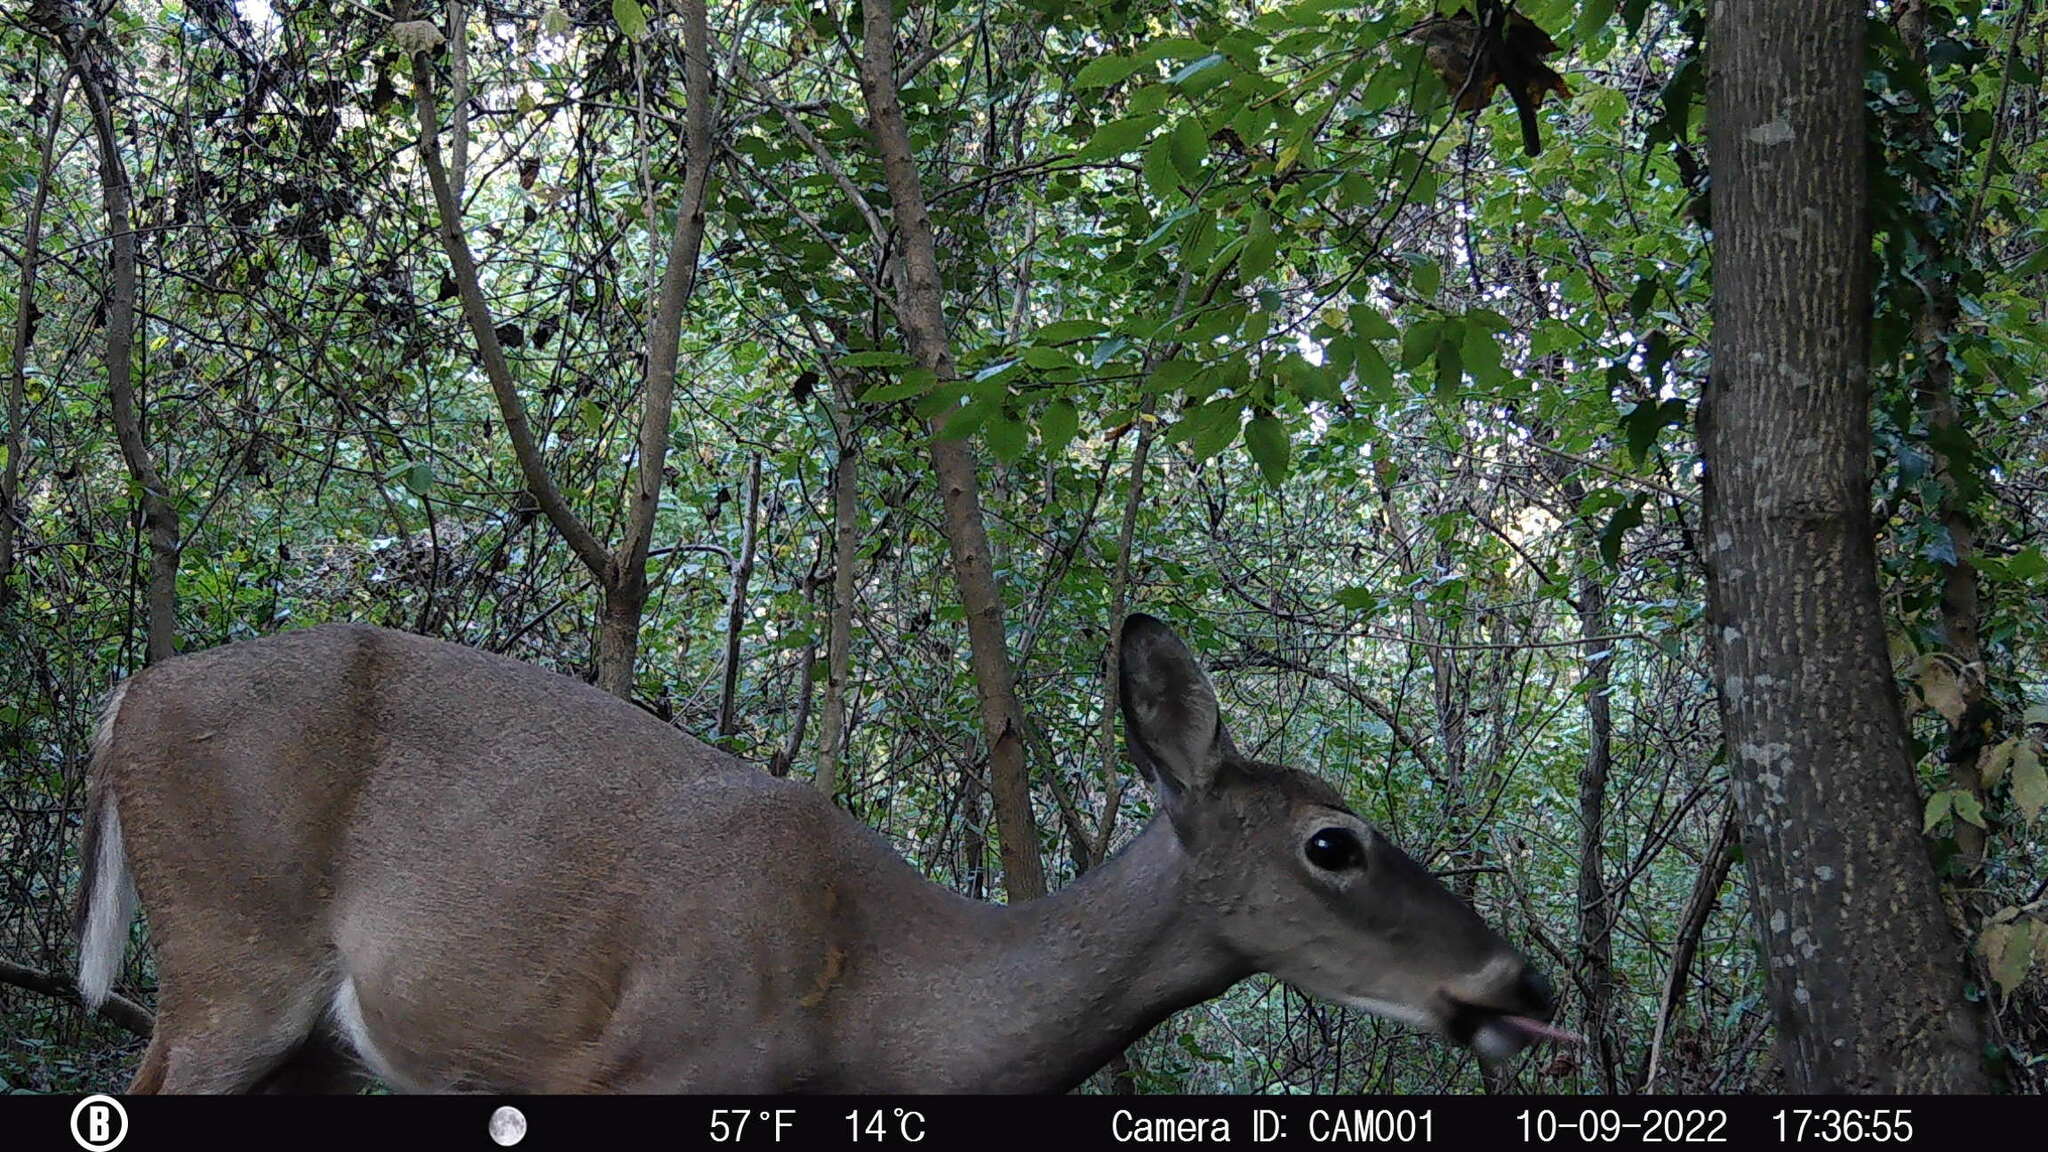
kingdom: Animalia
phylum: Chordata
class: Mammalia
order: Artiodactyla
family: Cervidae
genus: Odocoileus
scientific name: Odocoileus virginianus
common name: White-tailed deer
